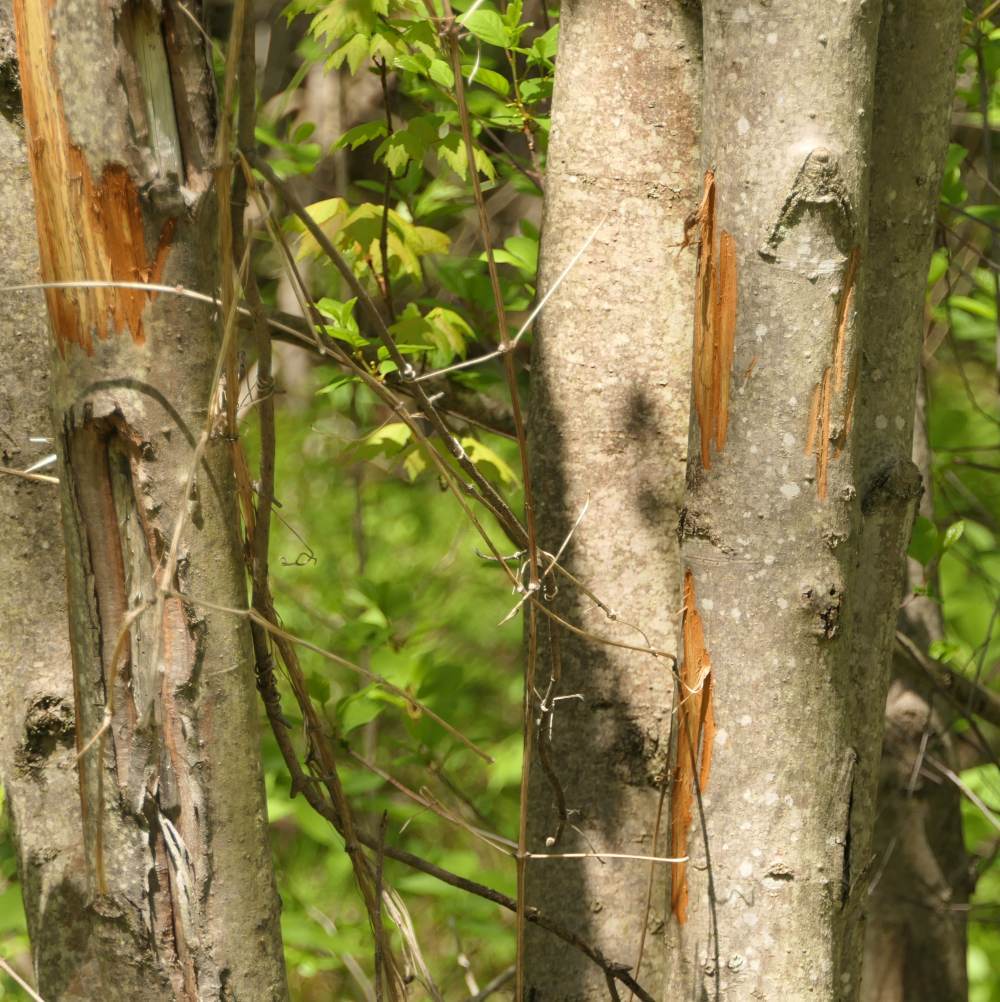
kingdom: Animalia
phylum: Chordata
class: Mammalia
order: Artiodactyla
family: Cervidae
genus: Alces
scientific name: Alces alces
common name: Moose
